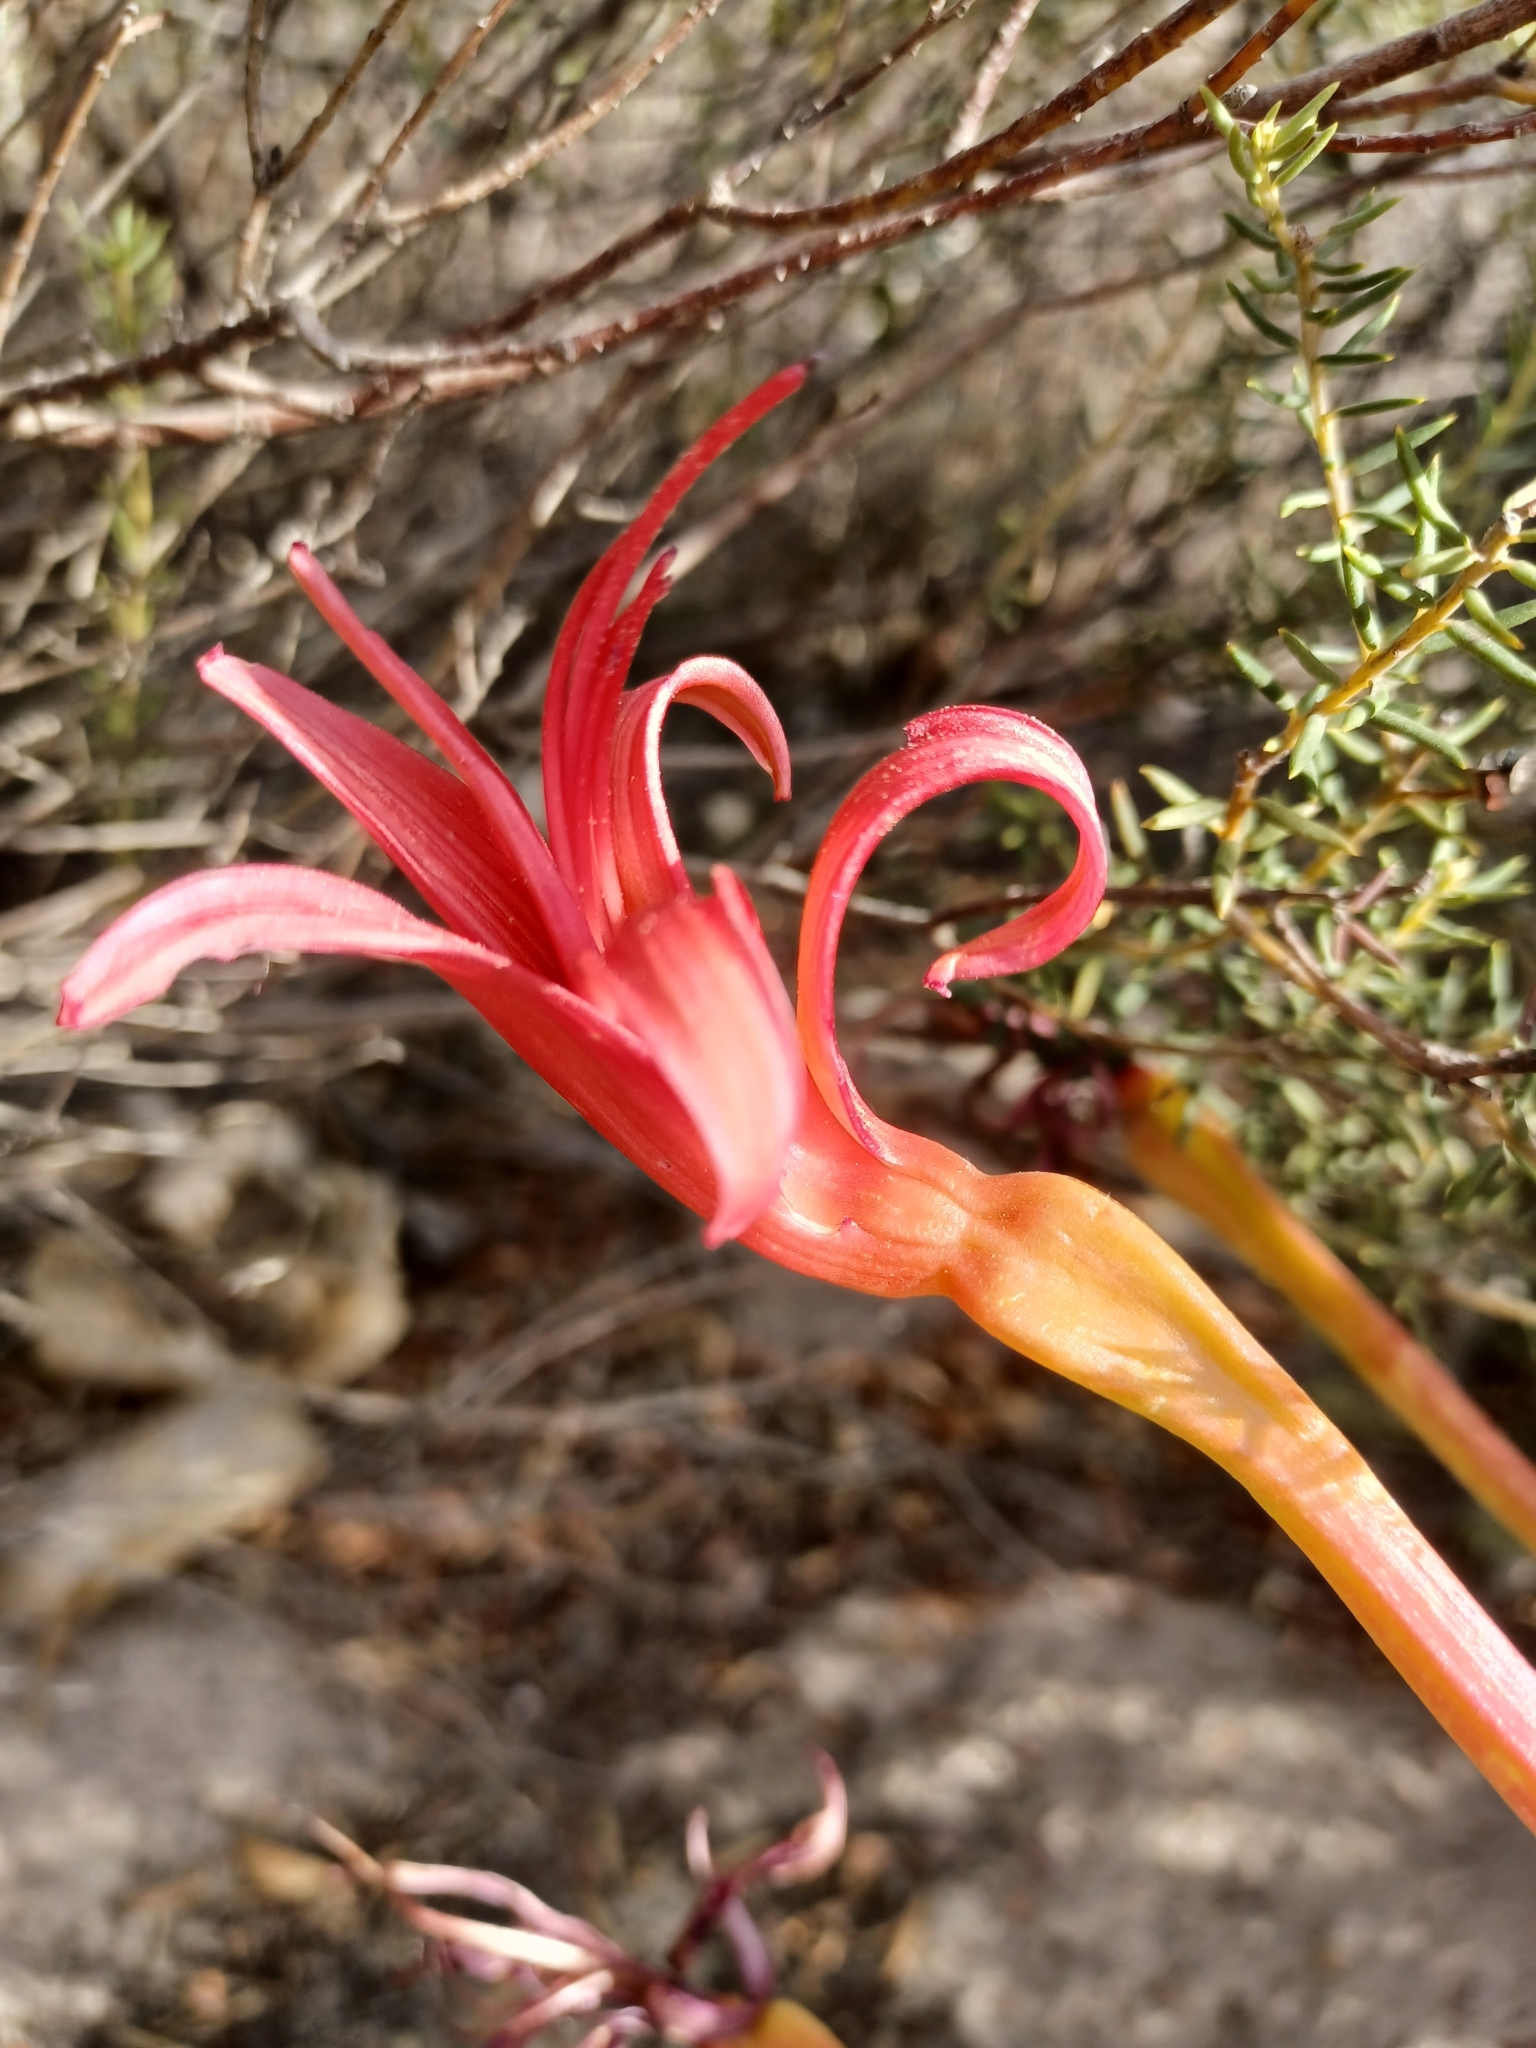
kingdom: Plantae
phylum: Tracheophyta
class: Liliopsida
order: Asparagales
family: Amaryllidaceae
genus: Brunsvigia
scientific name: Brunsvigia orientalis
